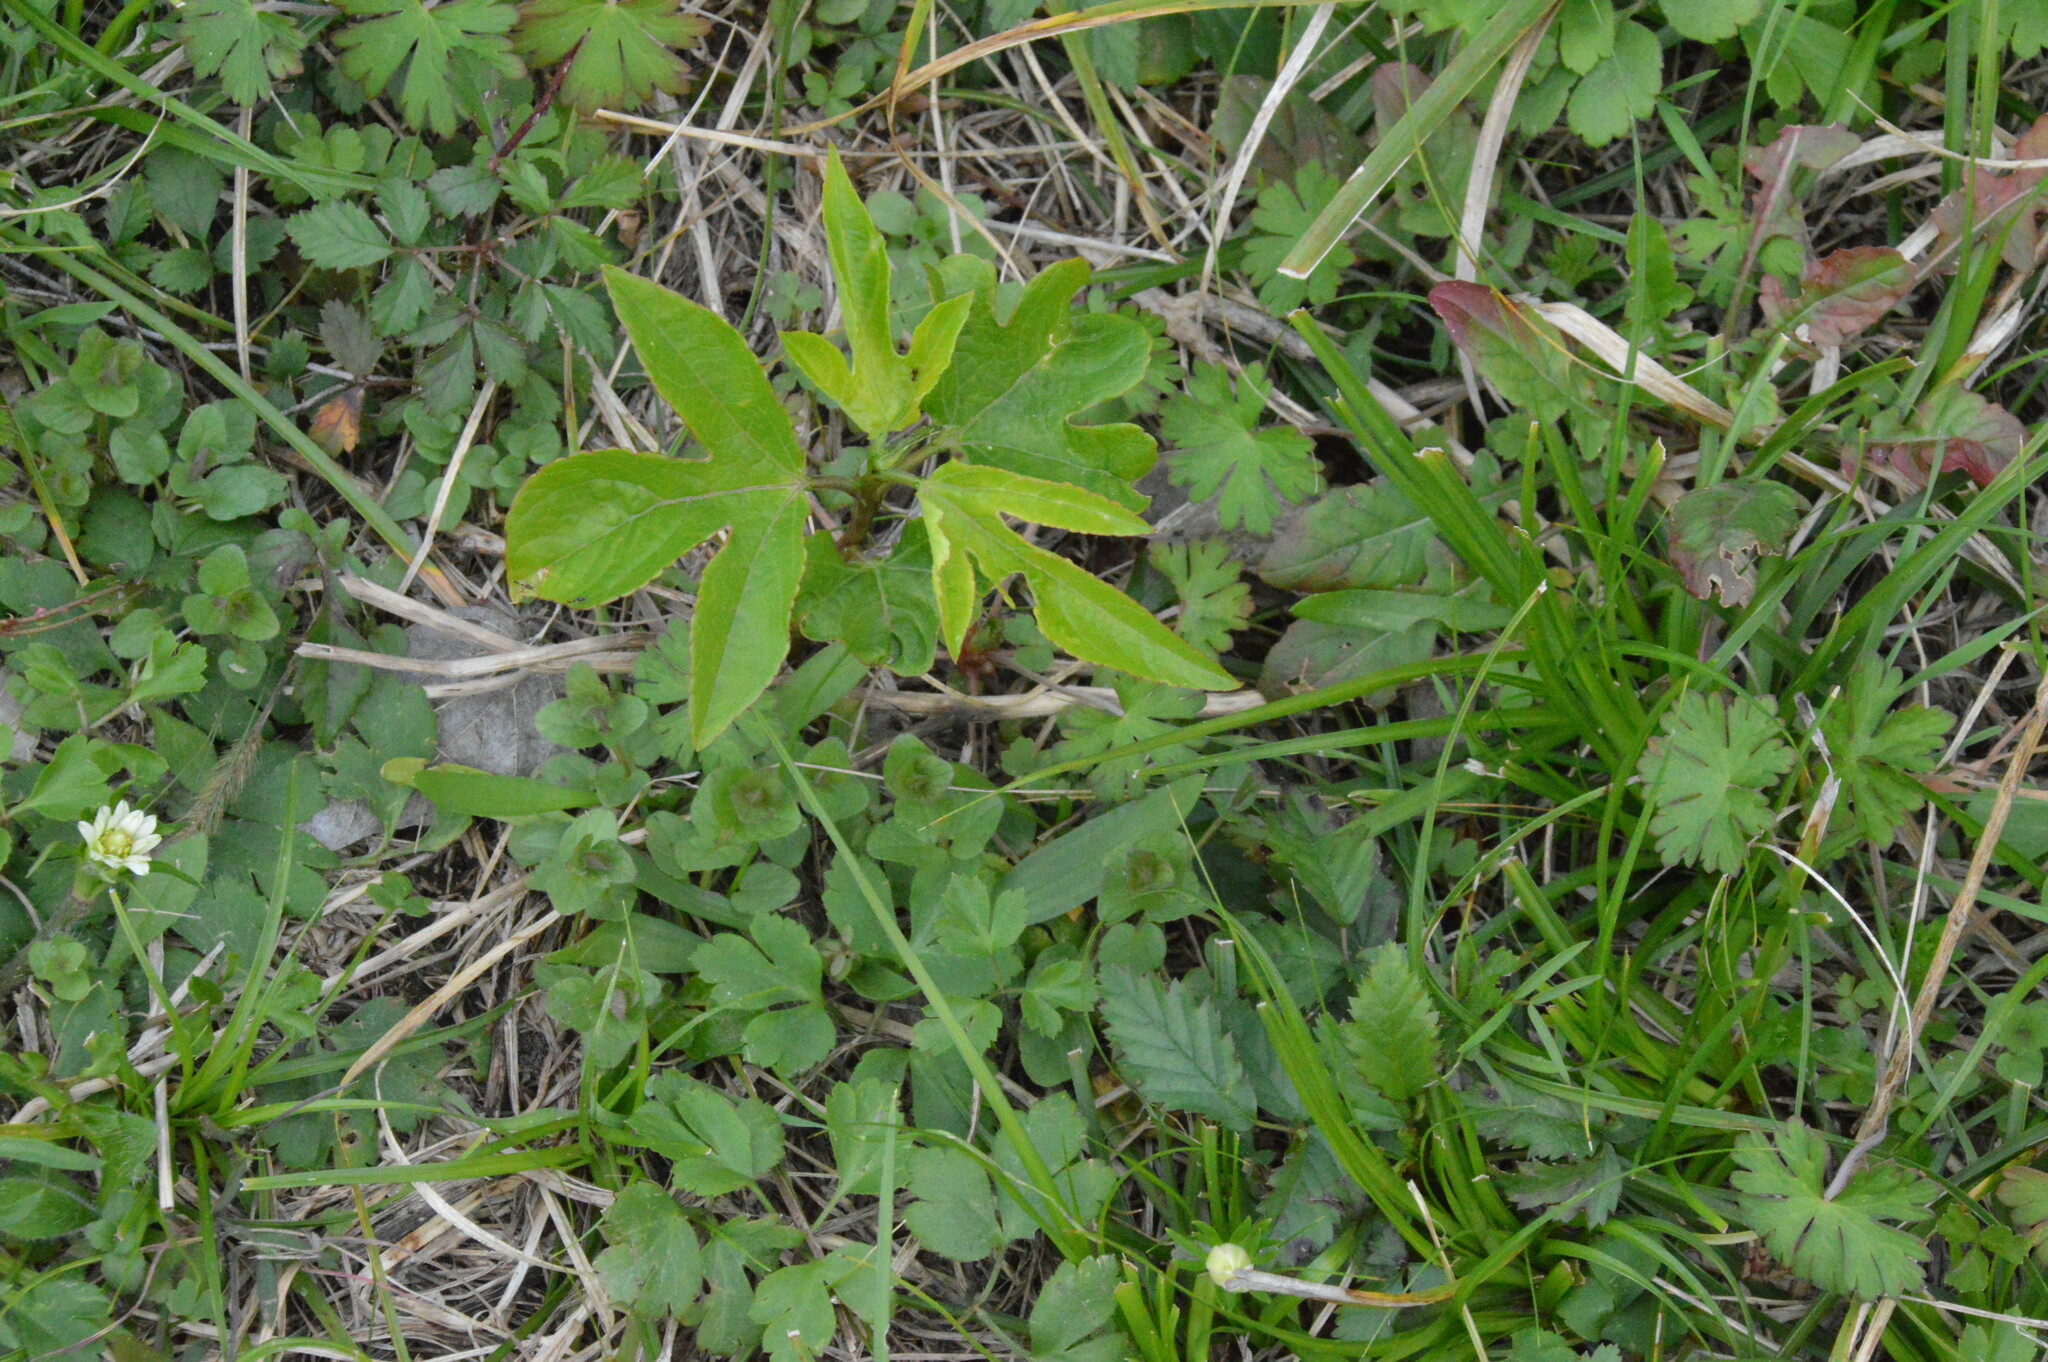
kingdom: Plantae
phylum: Tracheophyta
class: Magnoliopsida
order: Malpighiales
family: Passifloraceae
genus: Passiflora
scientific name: Passiflora incarnata
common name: Apricot-vine
